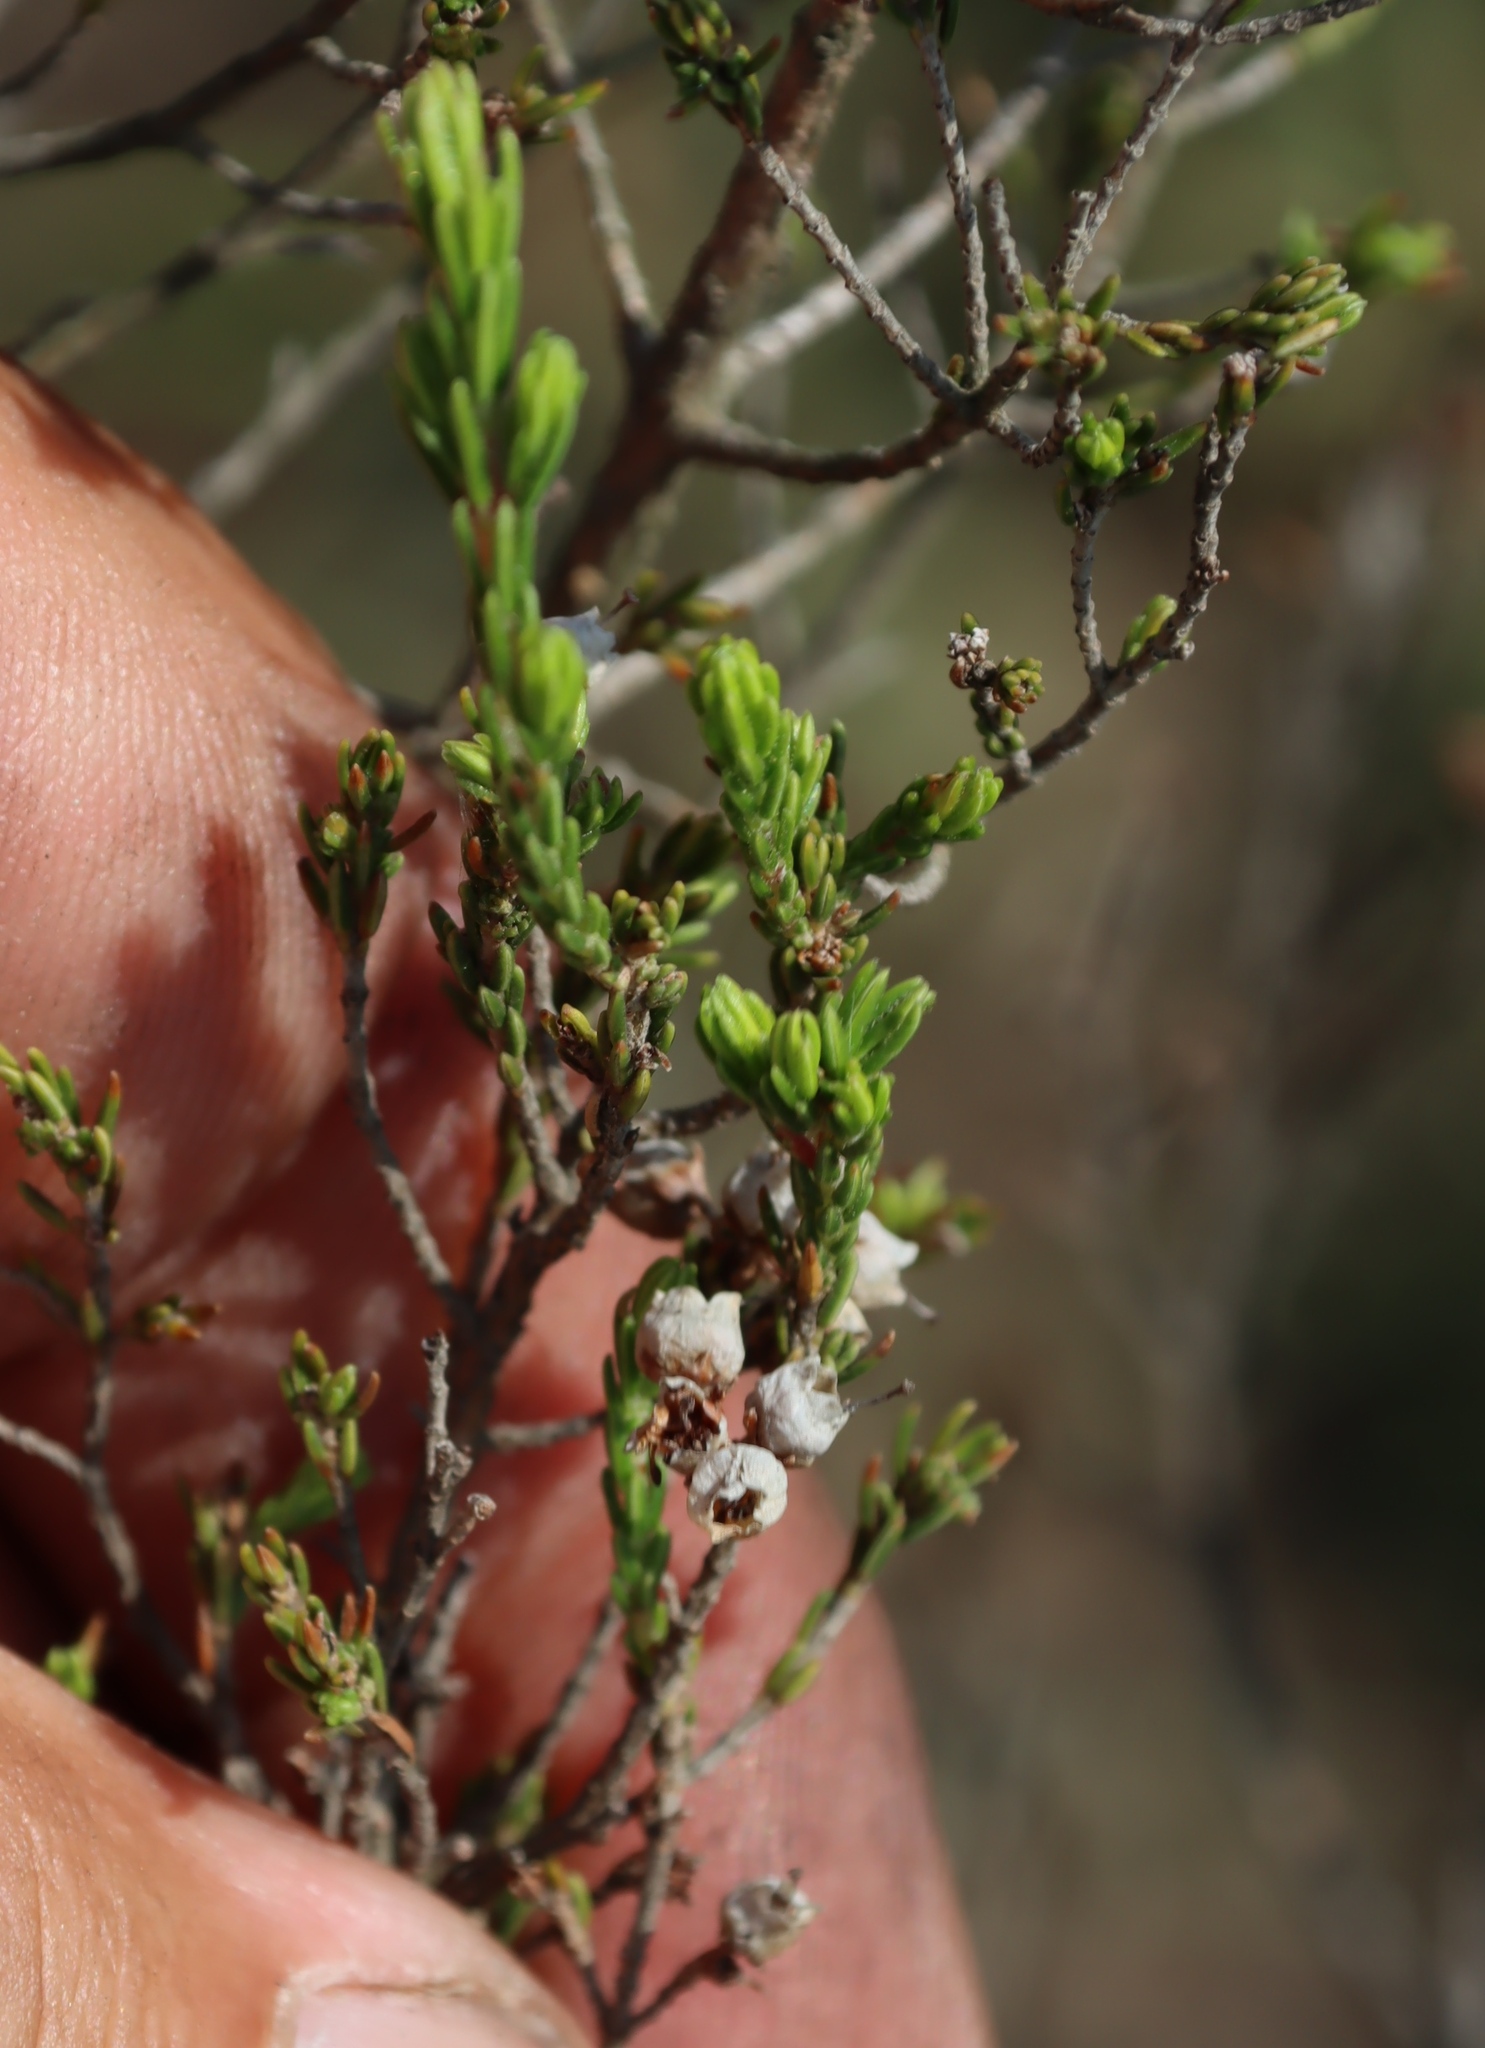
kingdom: Plantae
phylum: Tracheophyta
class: Magnoliopsida
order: Ericales
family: Ericaceae
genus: Erica
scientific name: Erica drakensbergensis
